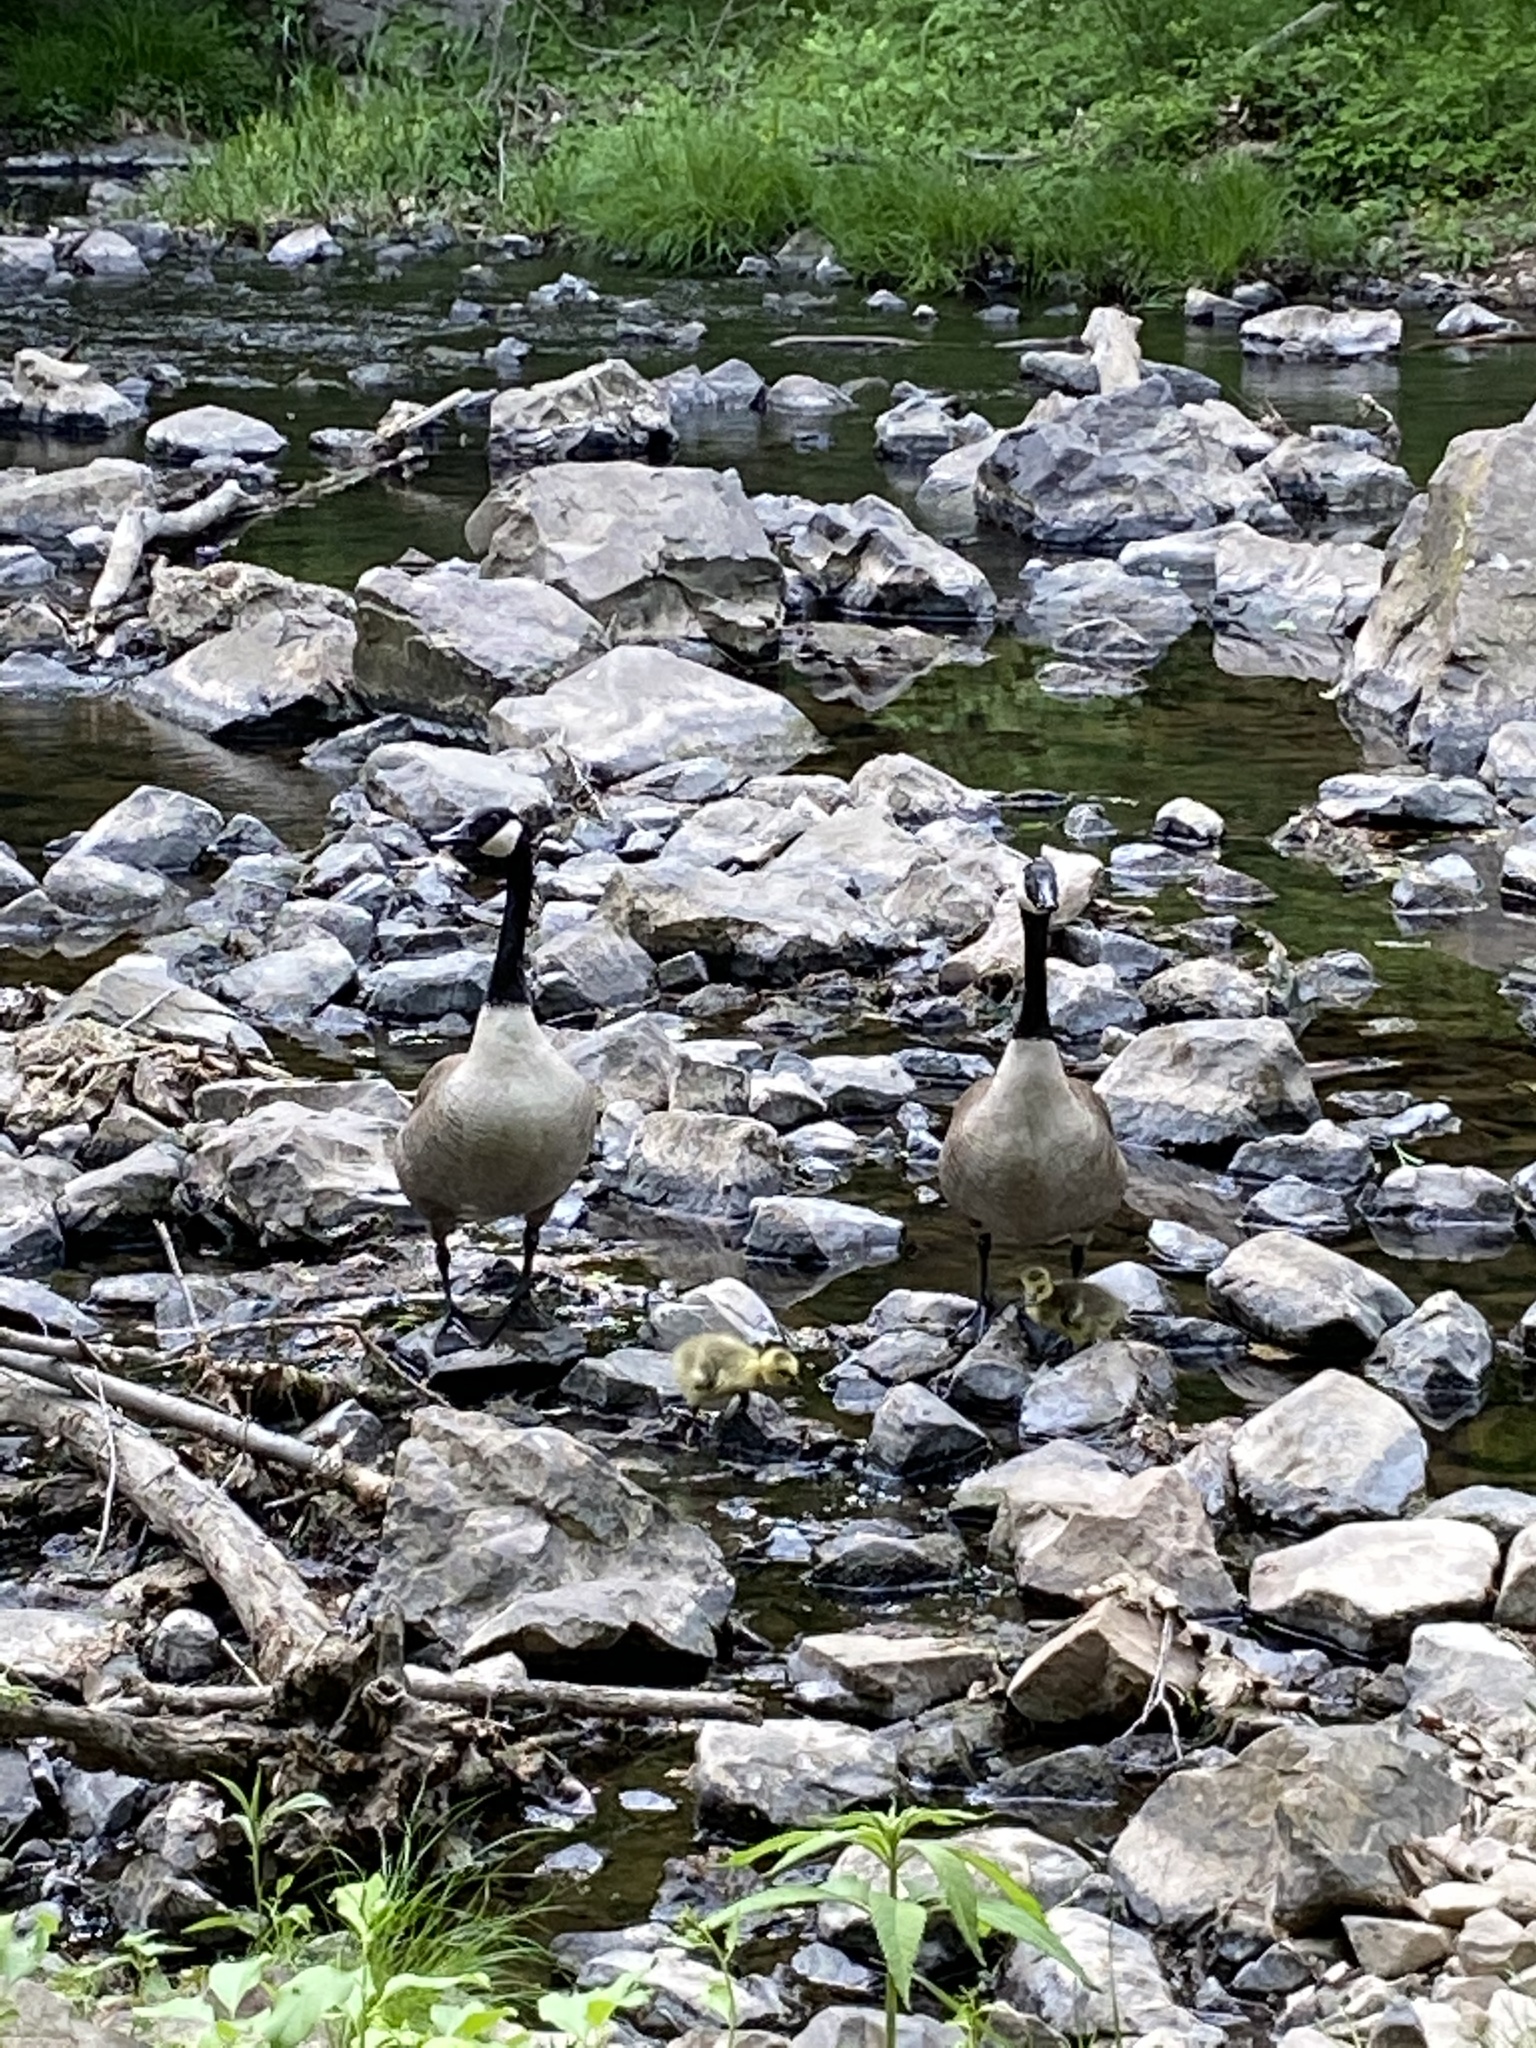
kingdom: Animalia
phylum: Chordata
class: Aves
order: Anseriformes
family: Anatidae
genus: Branta
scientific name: Branta canadensis
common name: Canada goose
